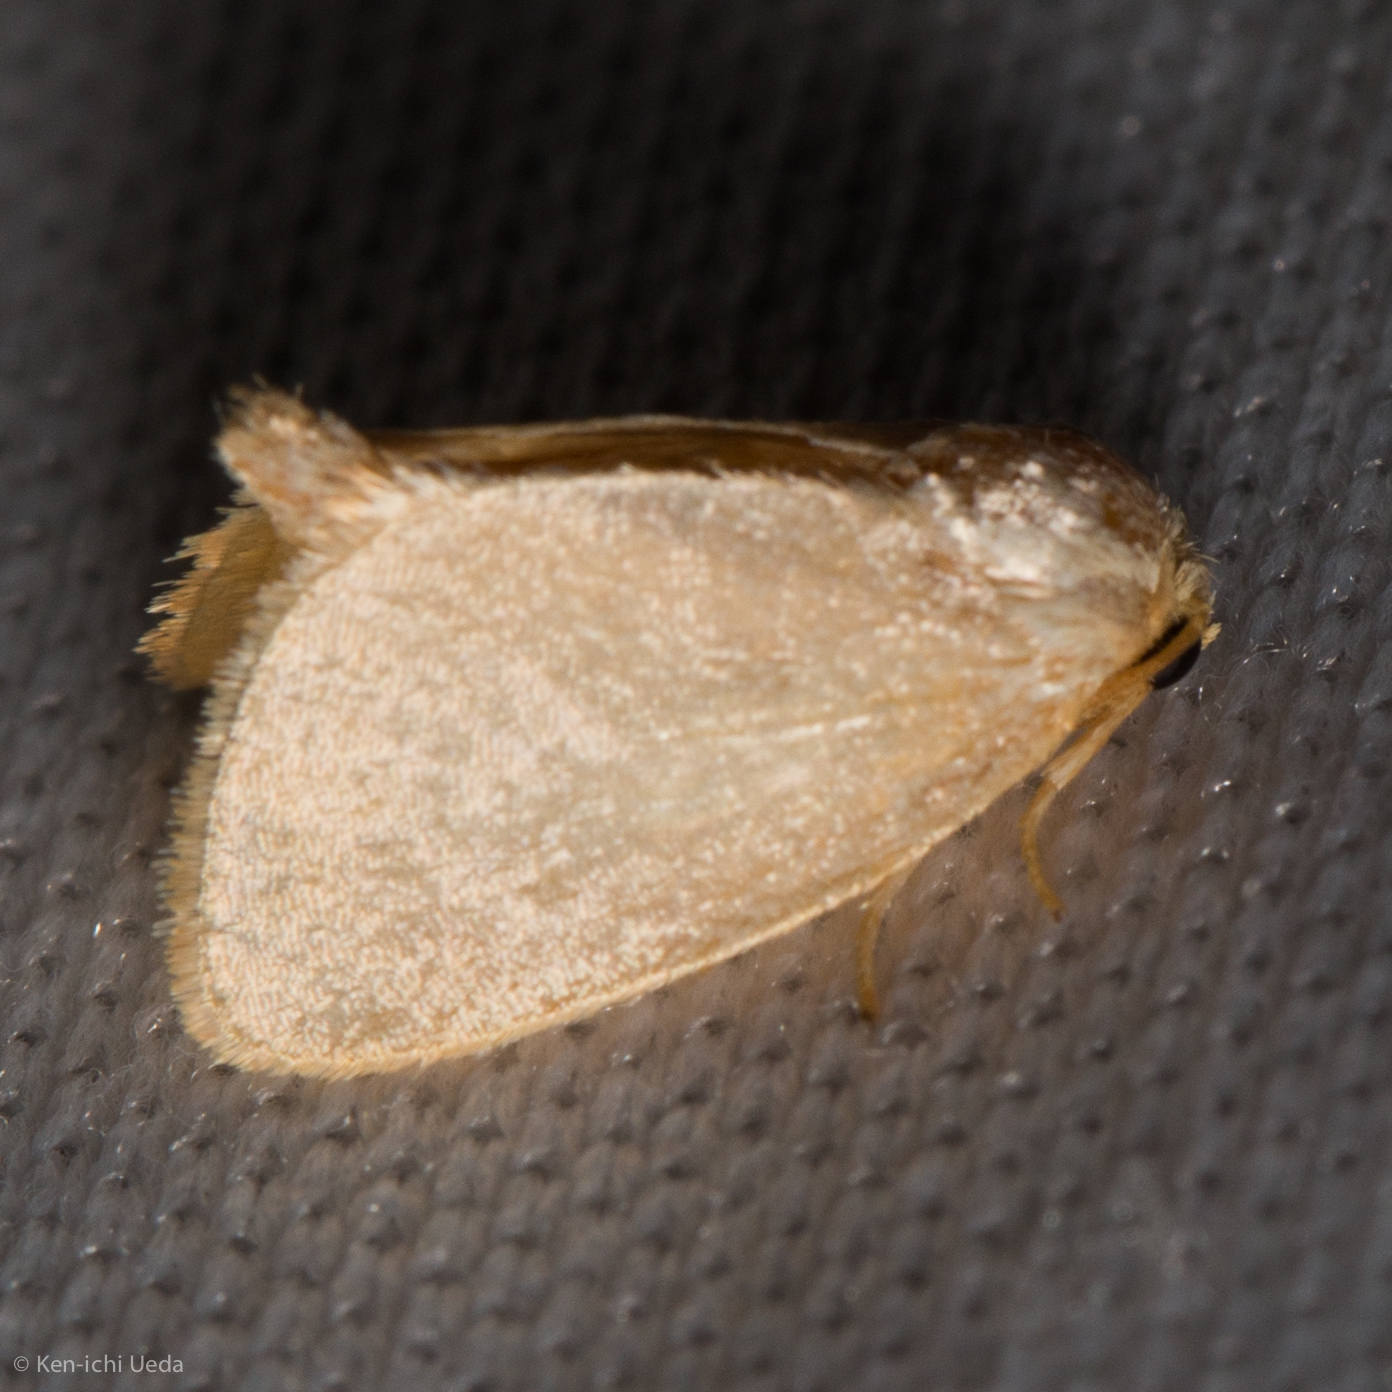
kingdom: Animalia
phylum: Arthropoda
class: Insecta
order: Lepidoptera
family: Limacodidae
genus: Tortricidia
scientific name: Tortricidia pallida
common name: Red-crossed button slug moth
